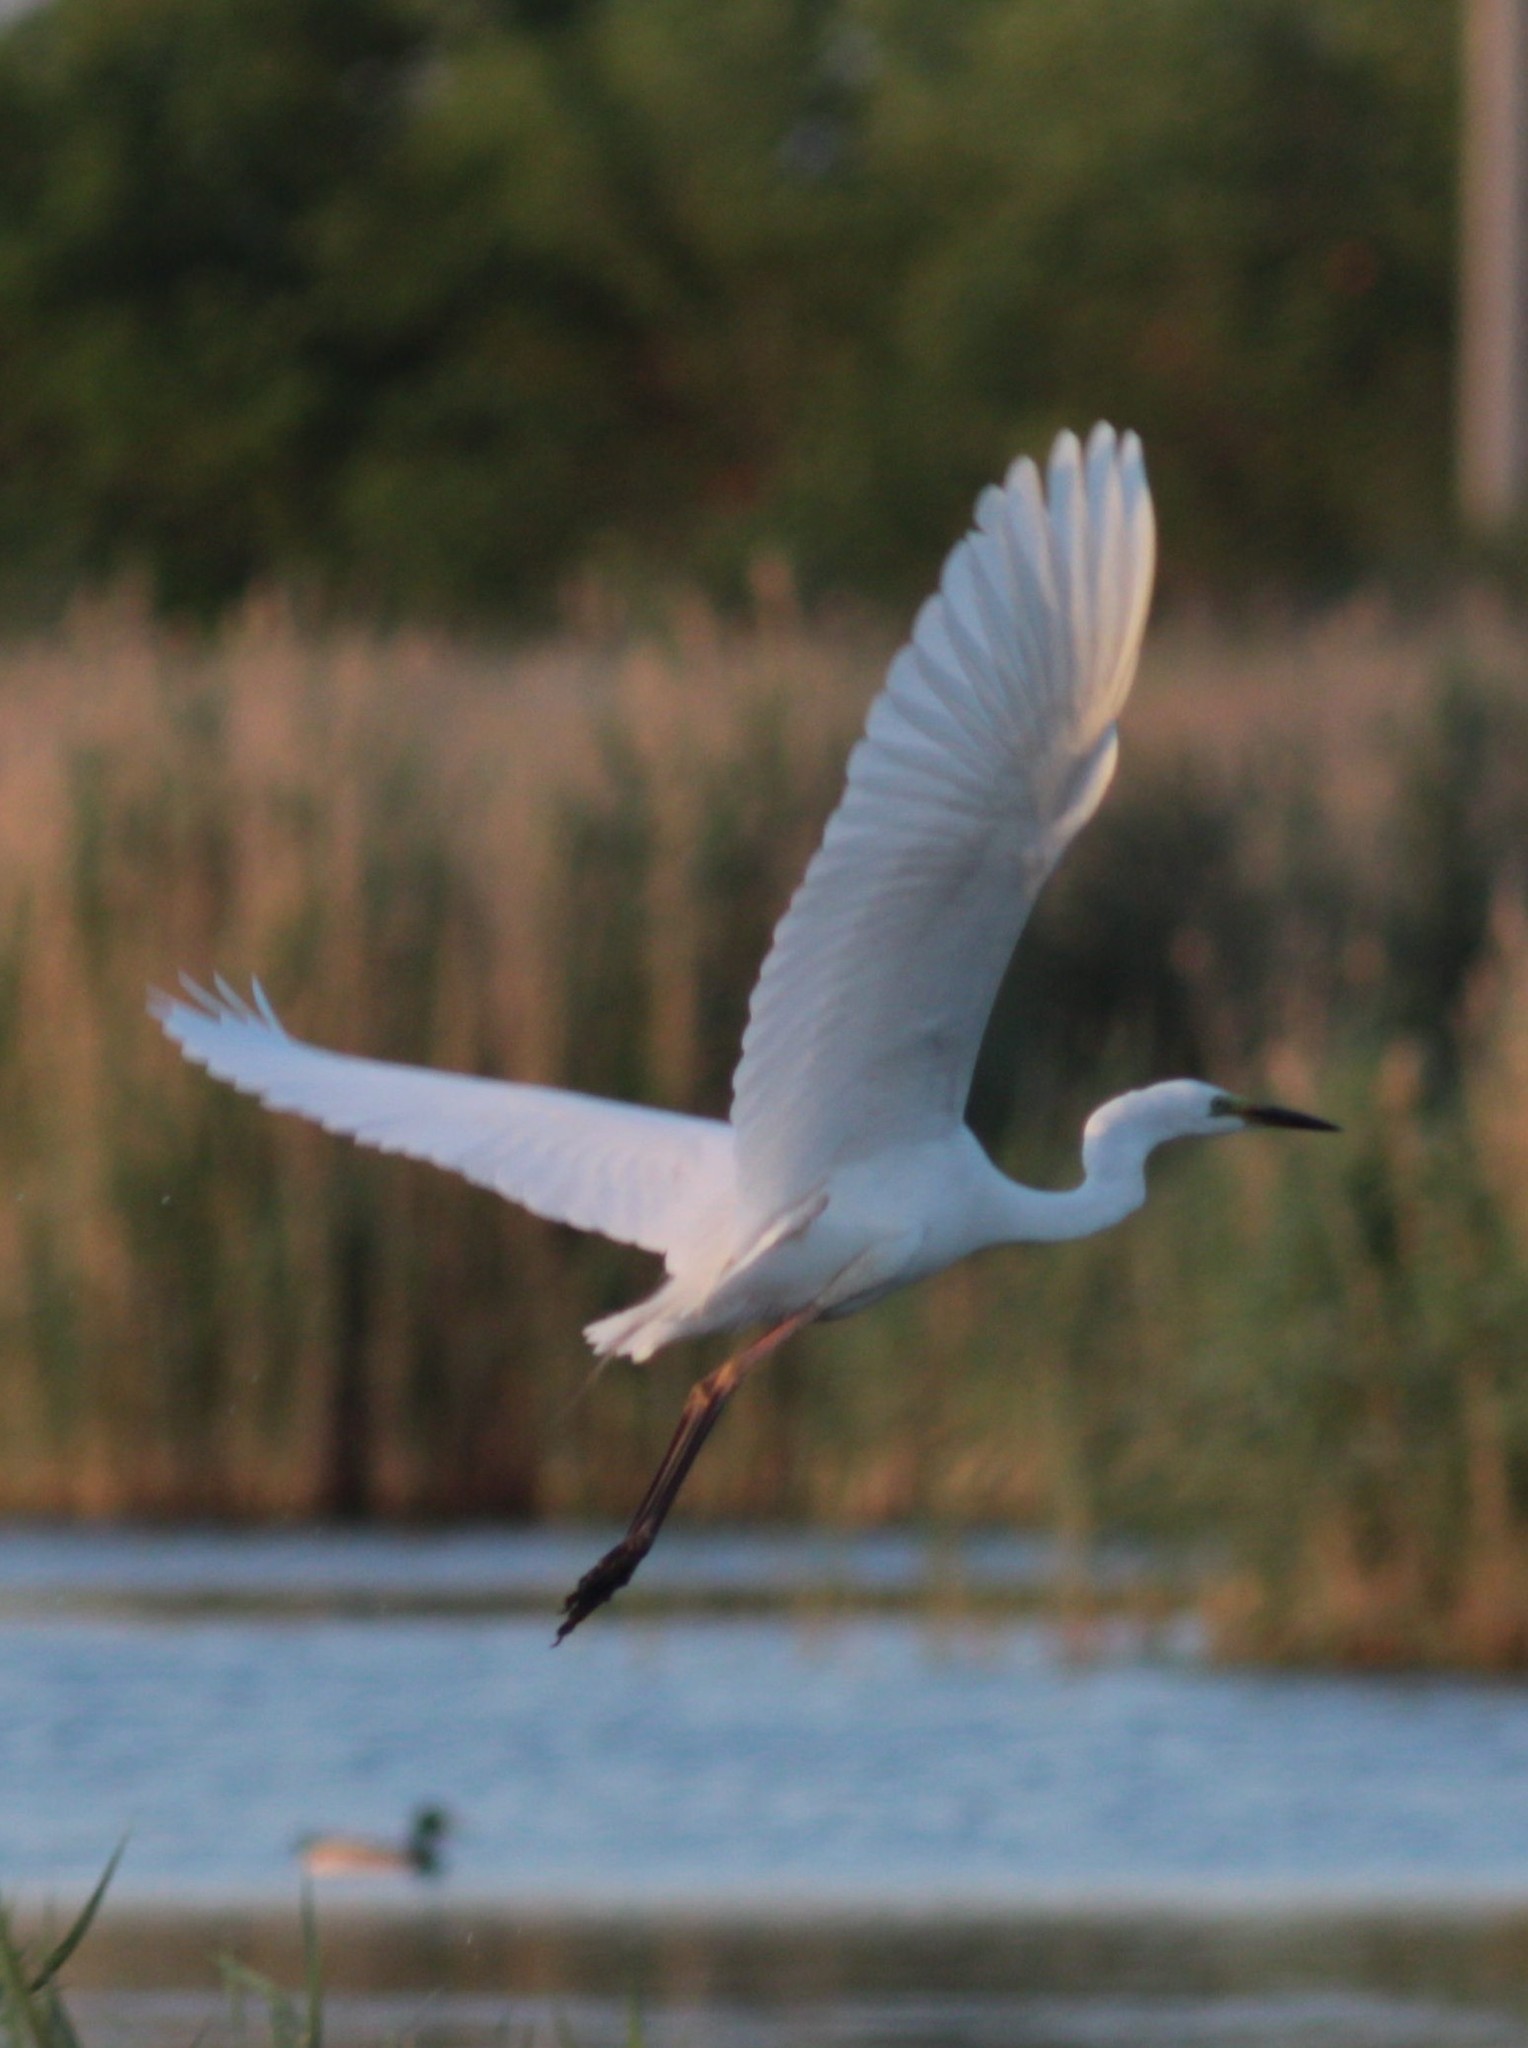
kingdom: Animalia
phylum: Chordata
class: Aves
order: Pelecaniformes
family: Ardeidae
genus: Ardea
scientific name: Ardea alba
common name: Great egret
